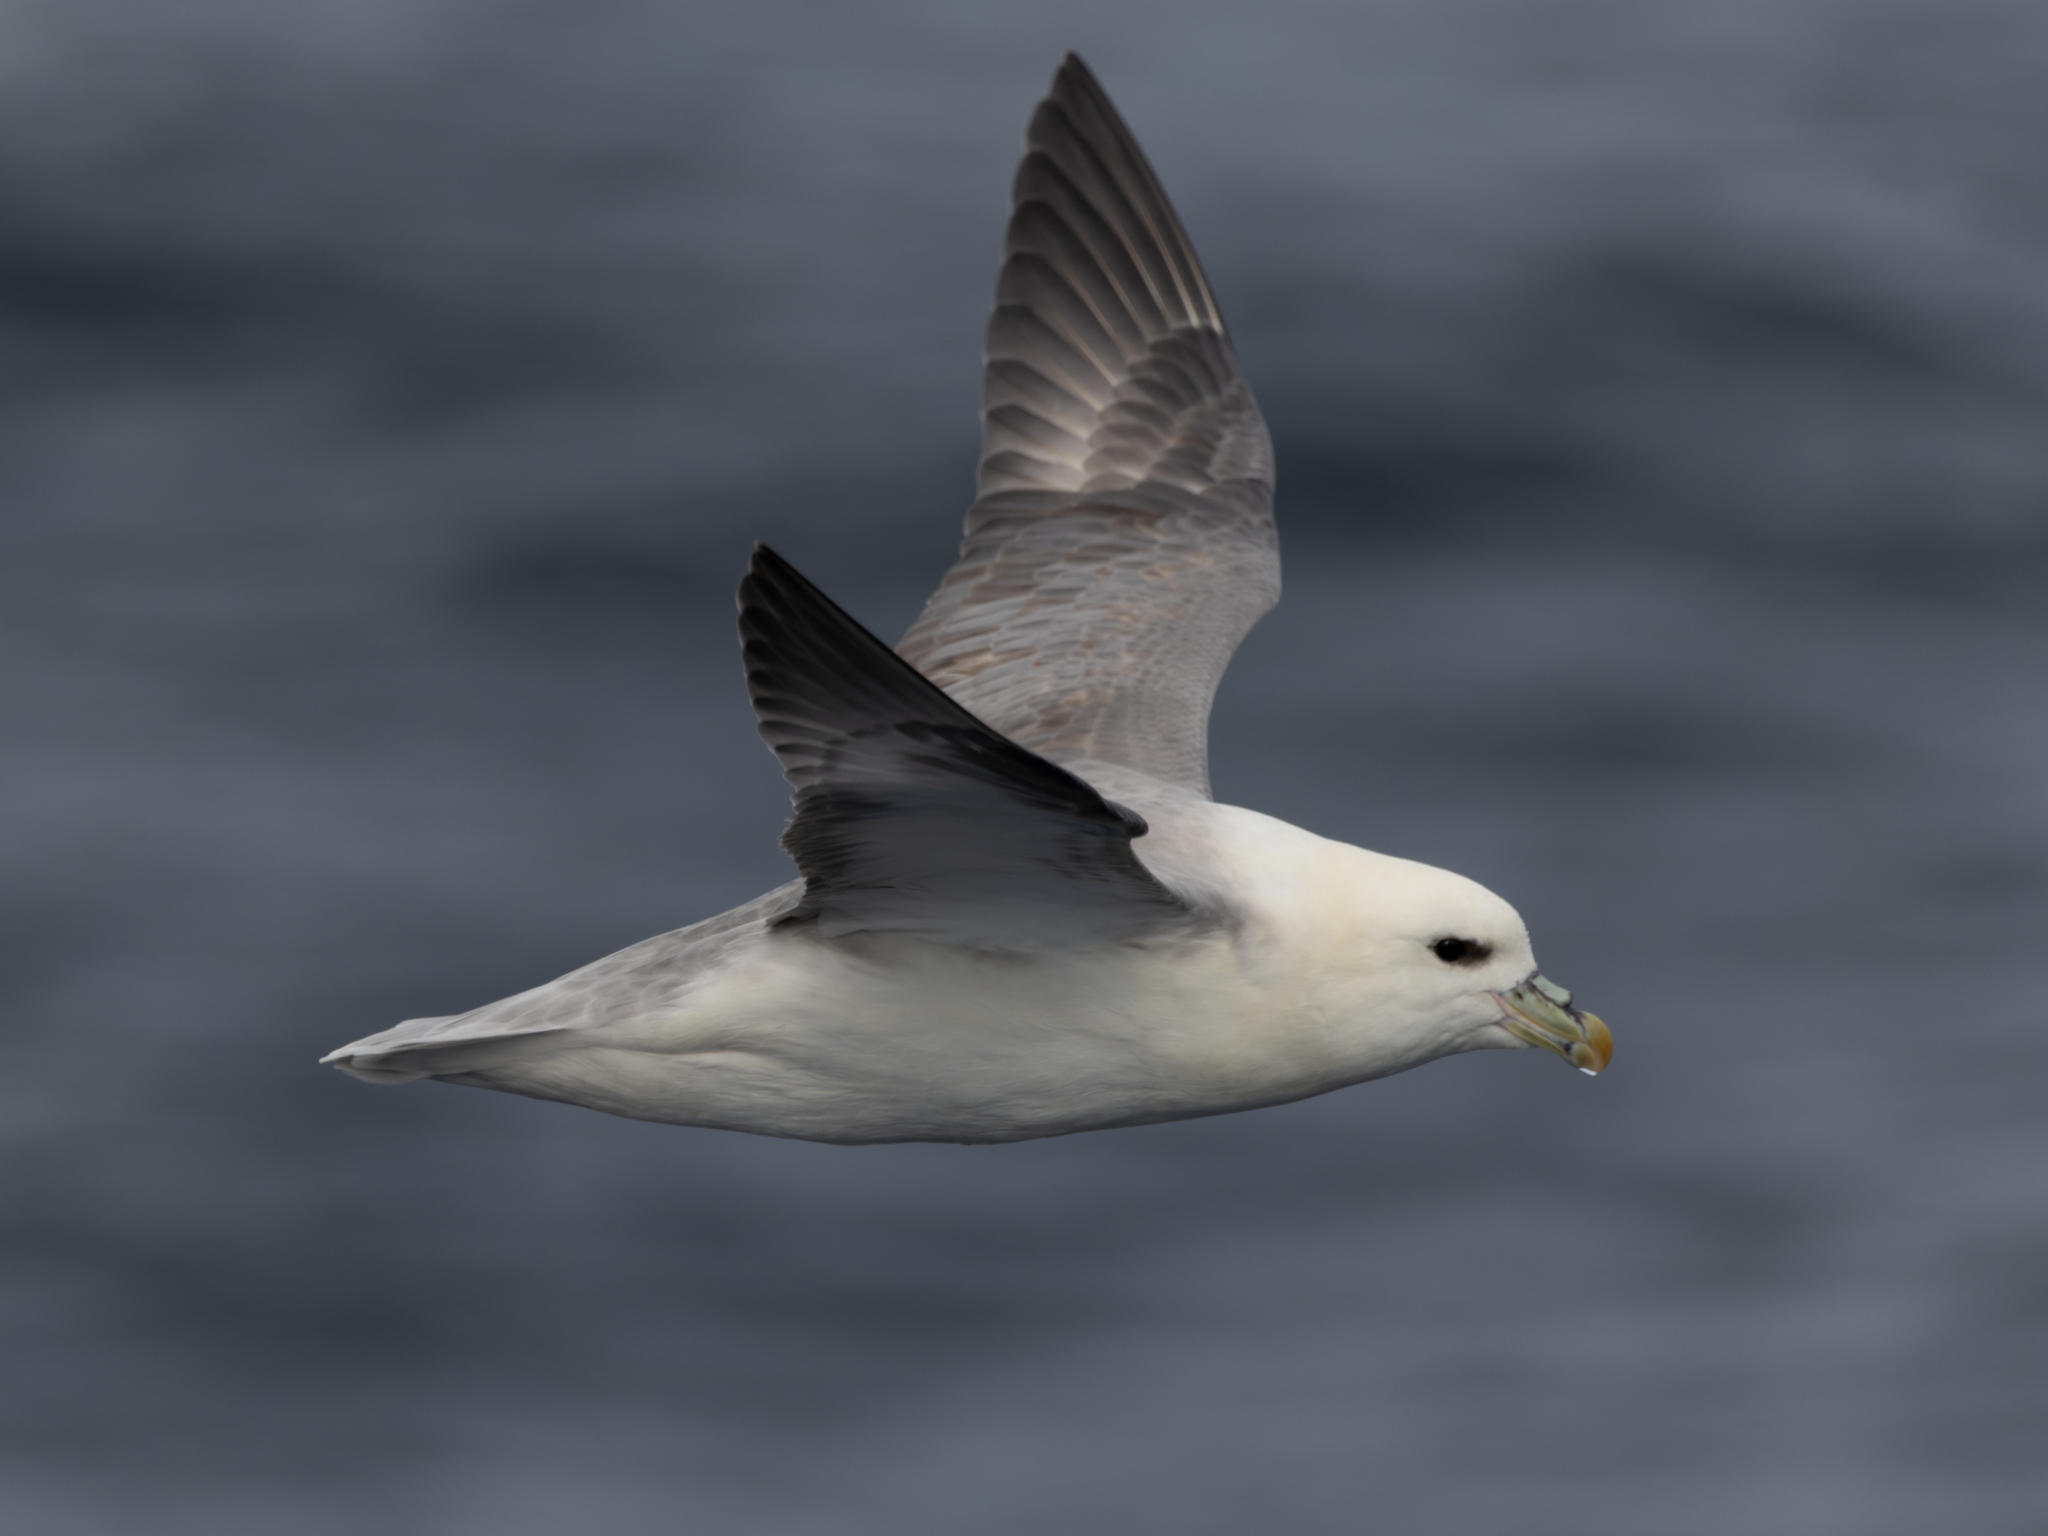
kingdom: Animalia
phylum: Chordata
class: Aves
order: Procellariiformes
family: Procellariidae
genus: Fulmarus
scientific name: Fulmarus glacialis
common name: Northern fulmar
